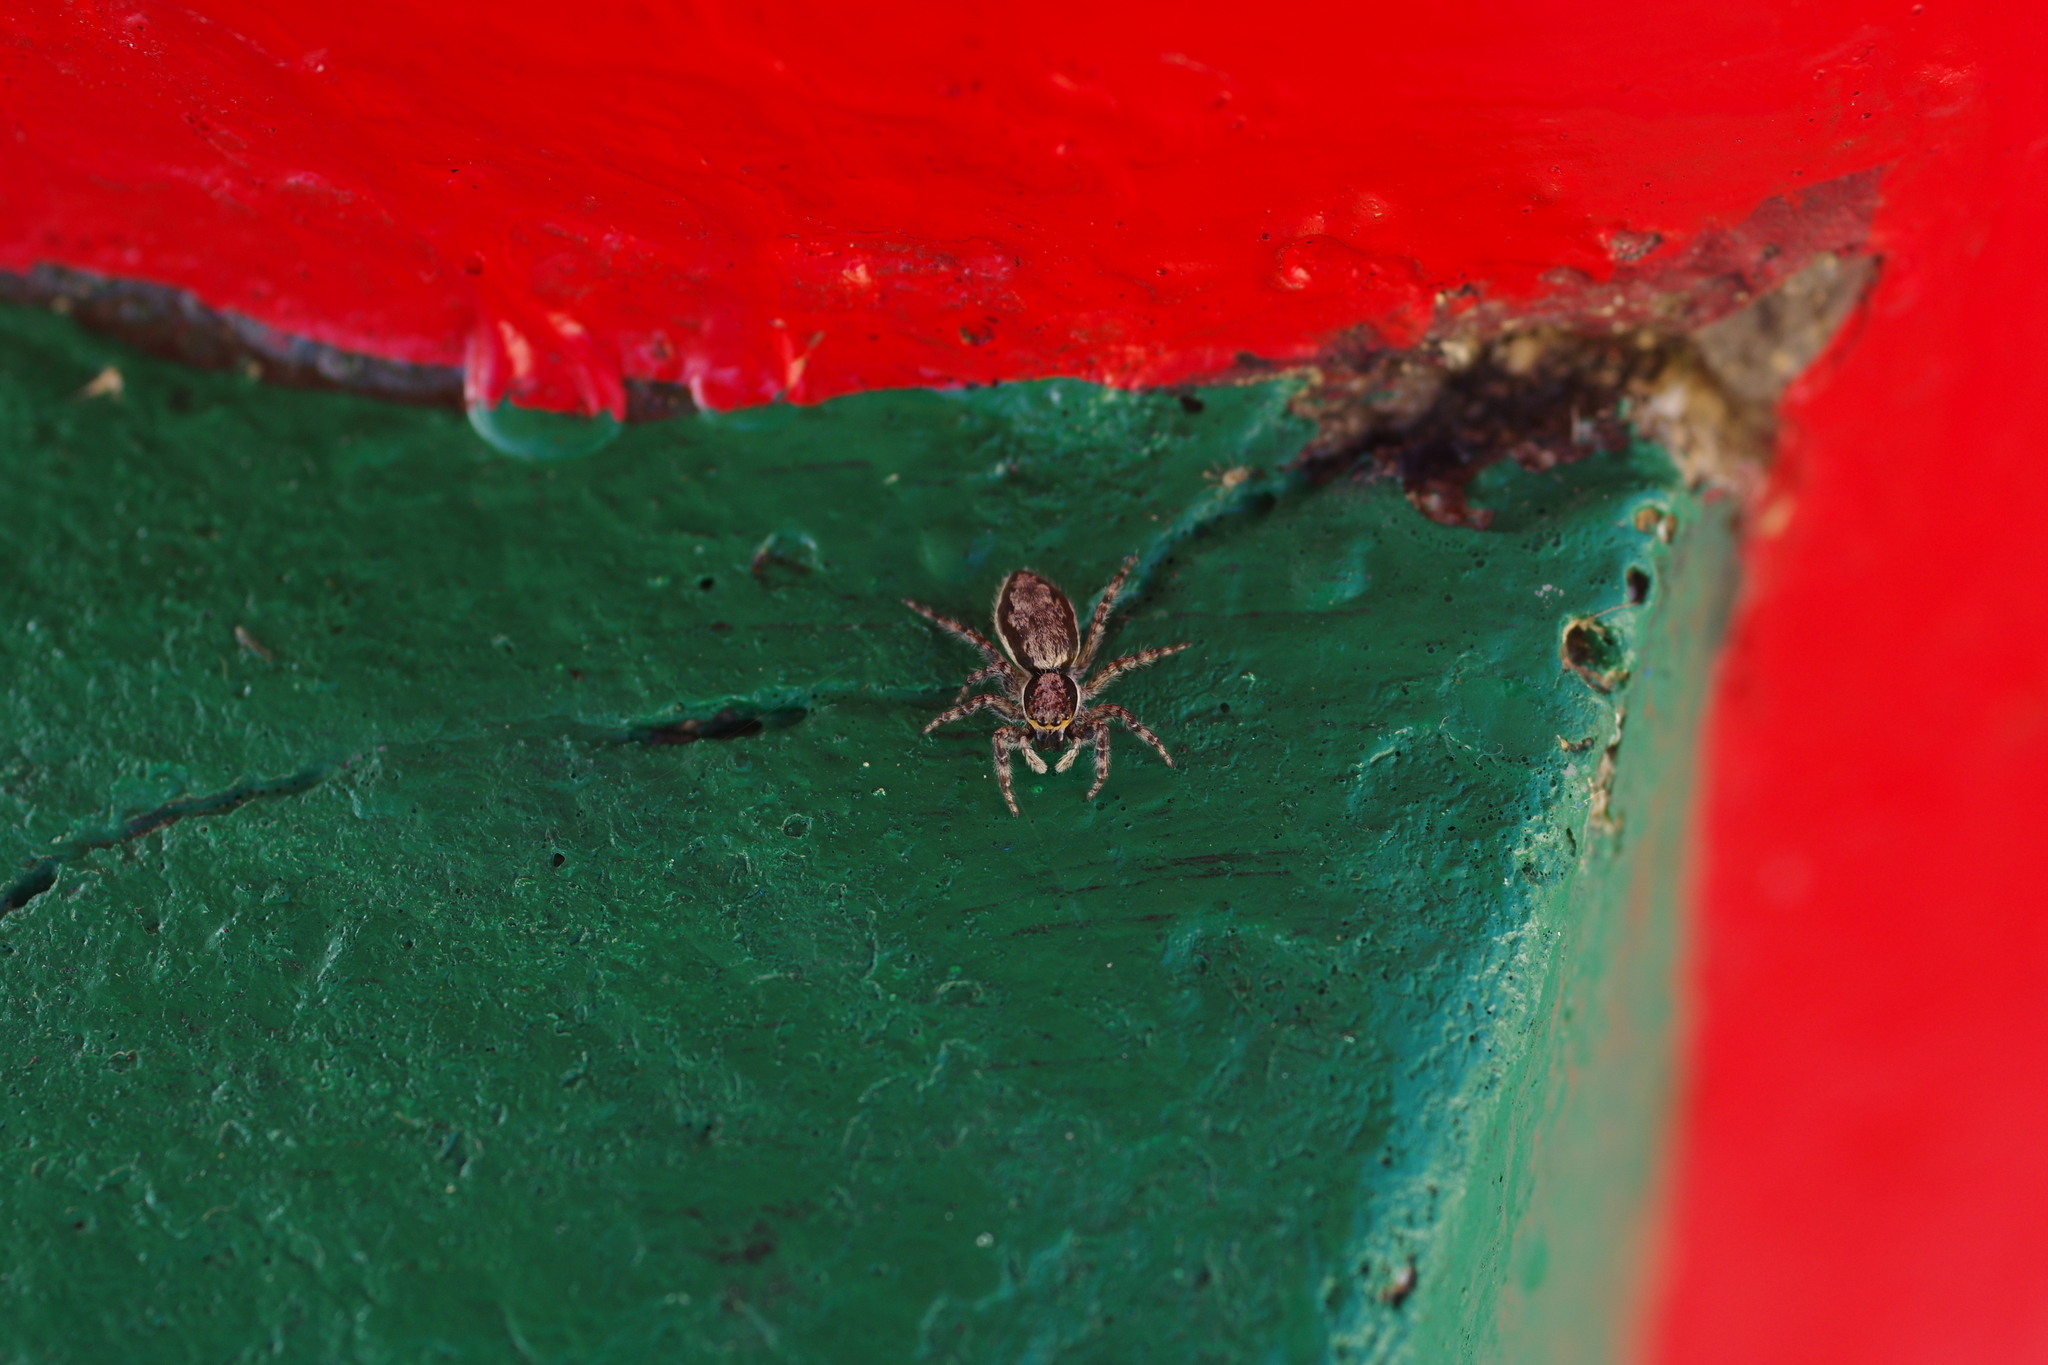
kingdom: Animalia
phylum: Arthropoda
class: Arachnida
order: Araneae
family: Salticidae
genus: Menemerus
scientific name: Menemerus bivittatus
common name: Gray wall jumper
